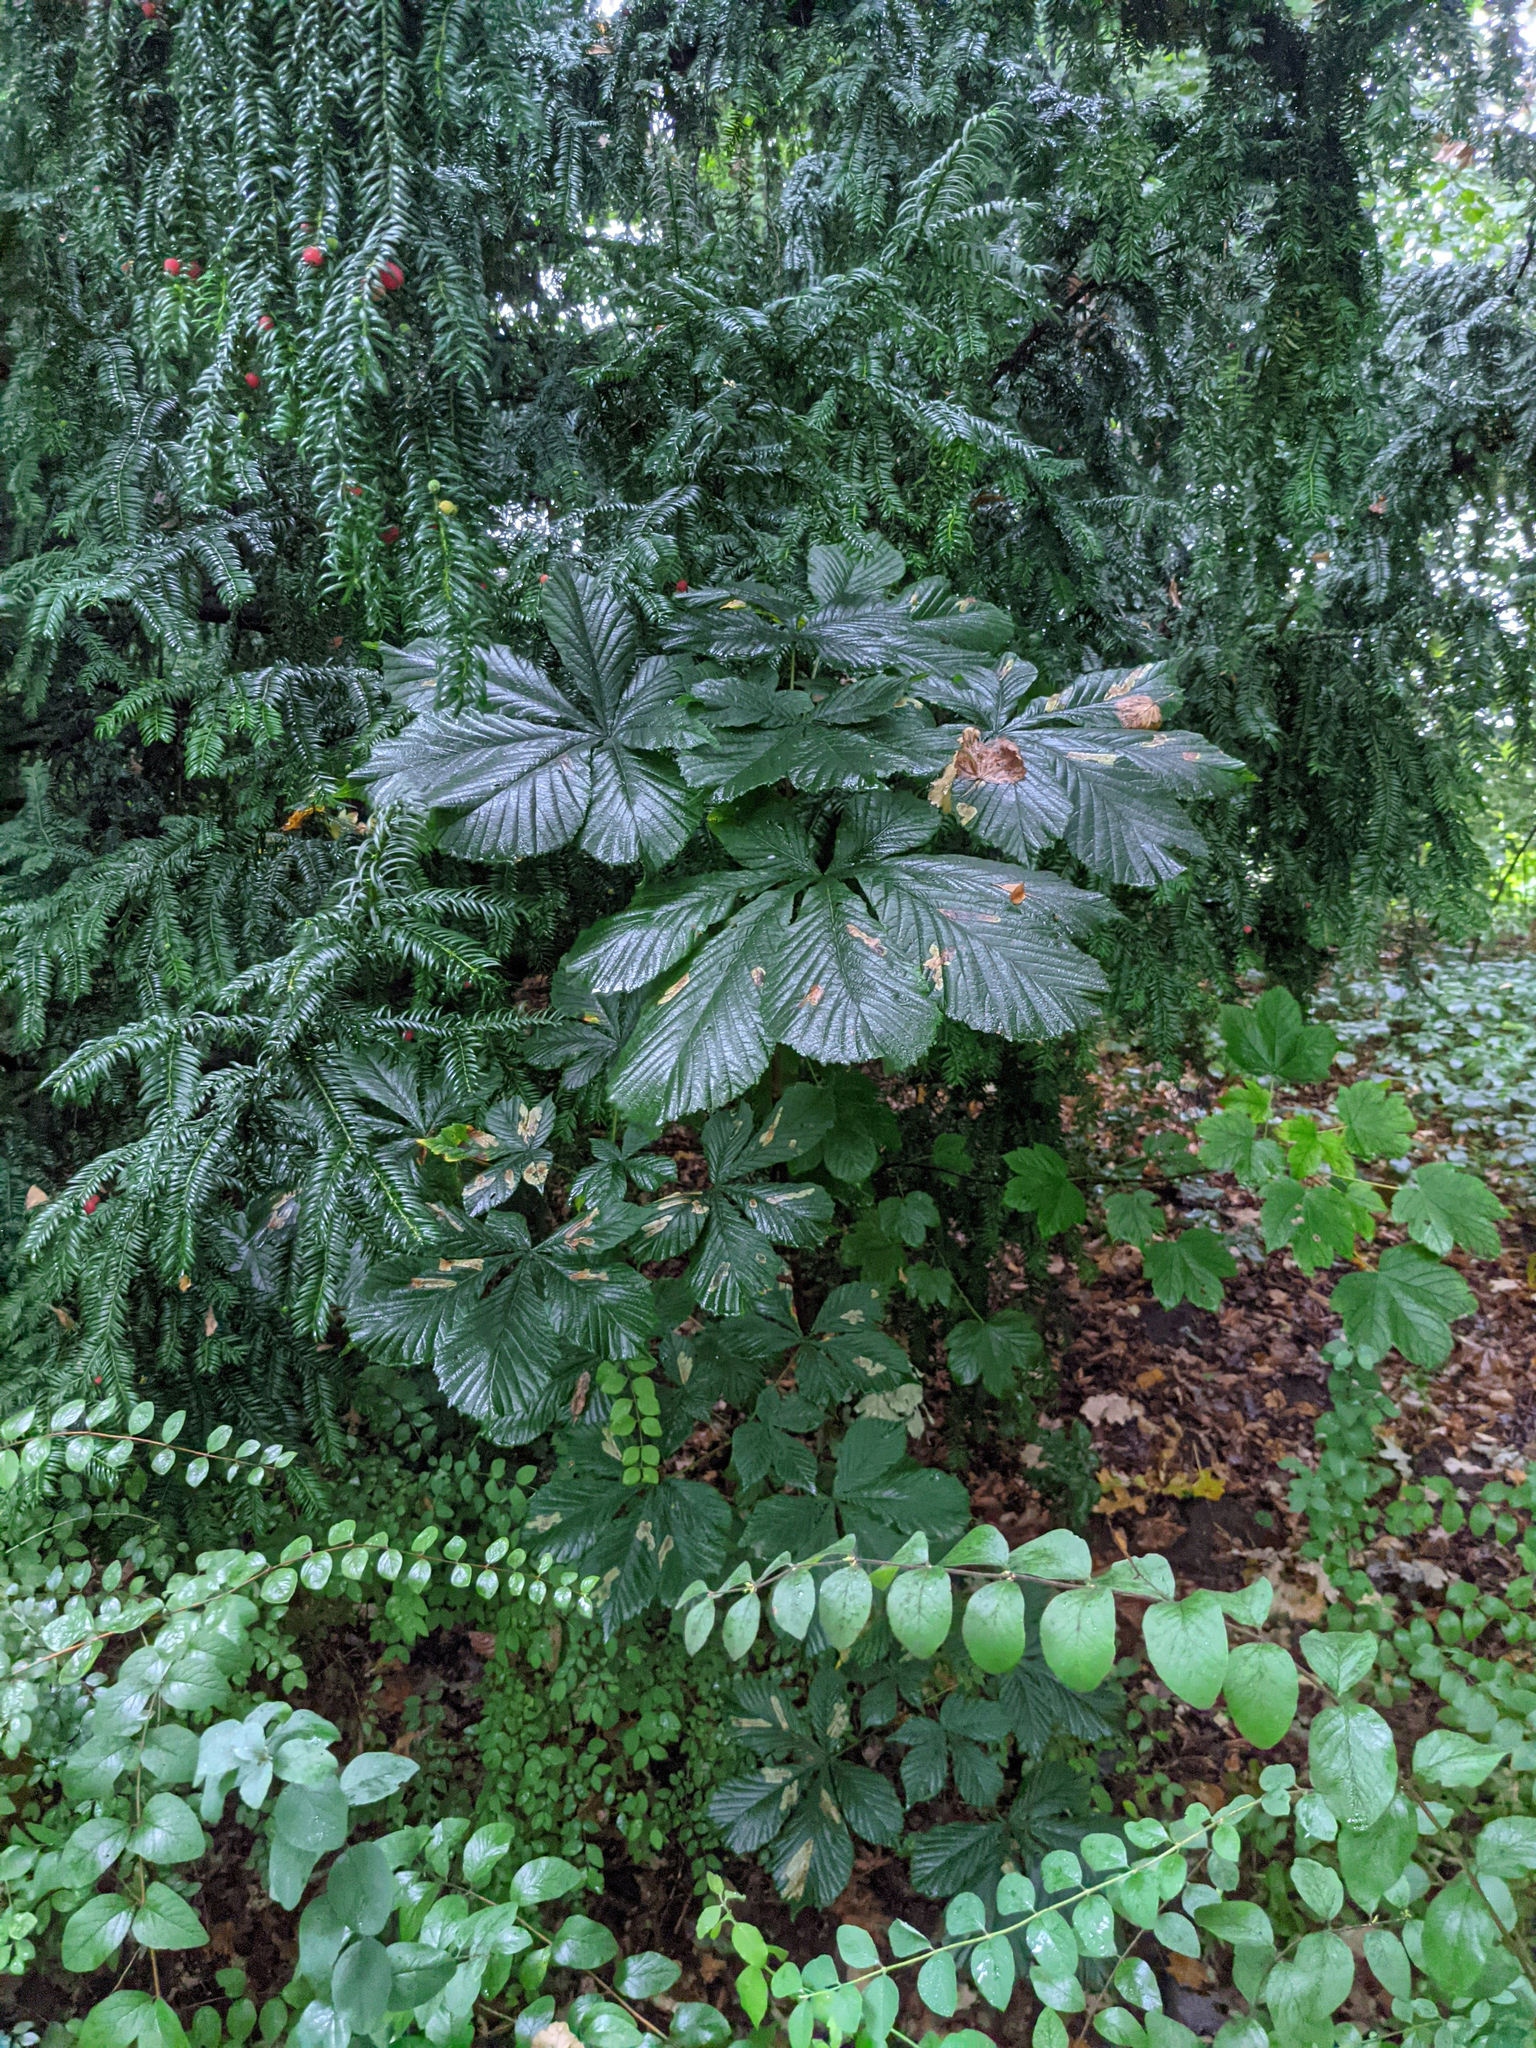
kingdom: Animalia
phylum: Arthropoda
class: Insecta
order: Lepidoptera
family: Gracillariidae
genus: Cameraria
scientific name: Cameraria ohridella
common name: Horse-chestnut leaf-miner
